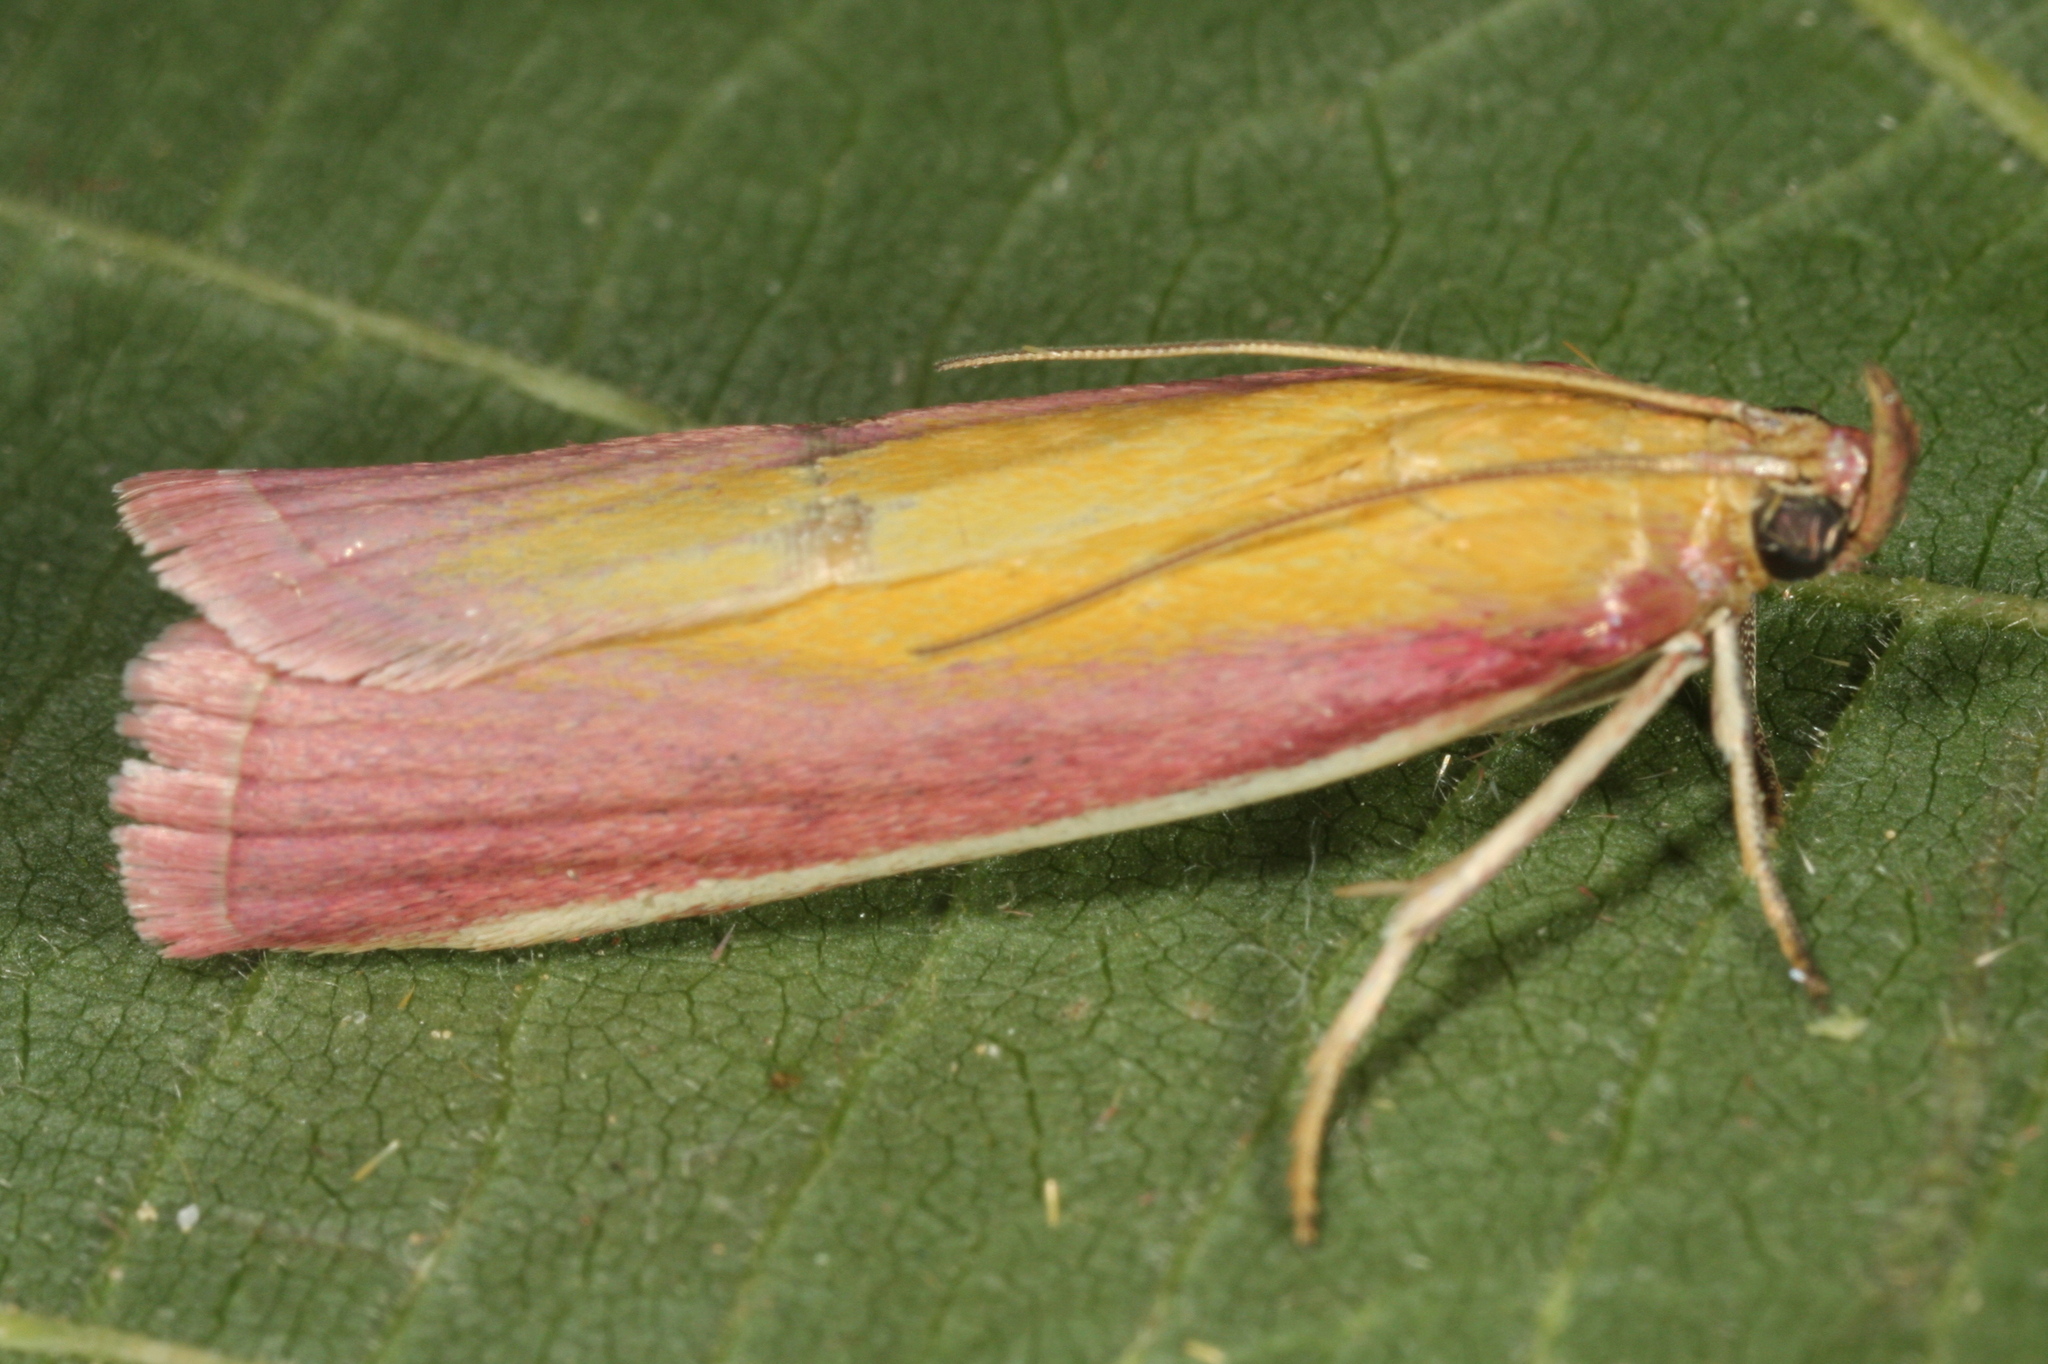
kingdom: Animalia
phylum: Arthropoda
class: Insecta
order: Lepidoptera
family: Pyralidae
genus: Oncocera
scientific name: Oncocera semirubella
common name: Rosy-striped knot-horn
